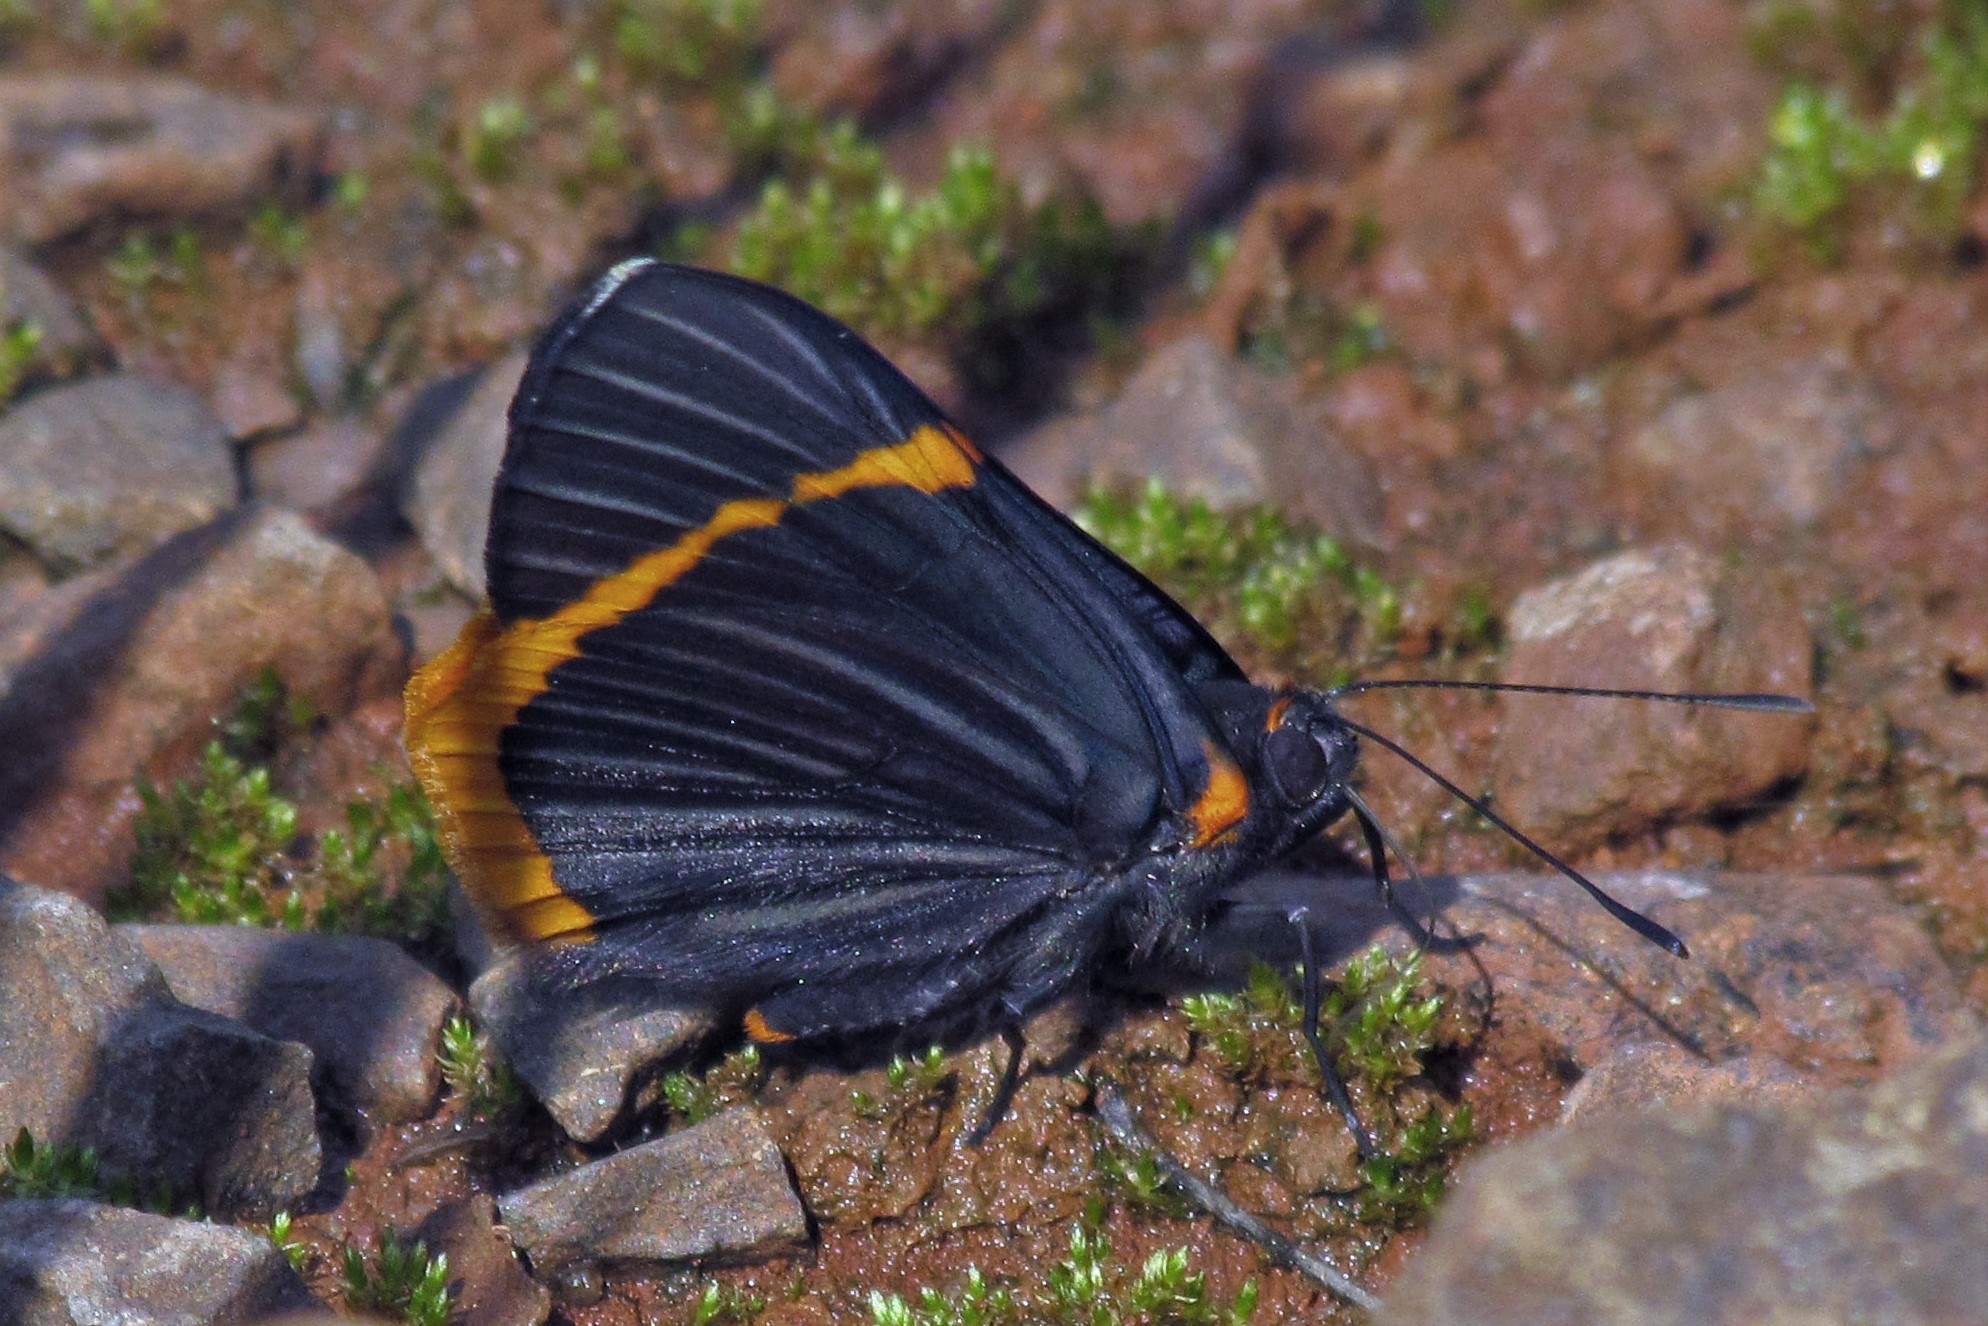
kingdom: Animalia
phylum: Arthropoda
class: Insecta
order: Lepidoptera
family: Riodinidae
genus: Riodina
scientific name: Riodina lycisca
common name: Lycisca metalmark
